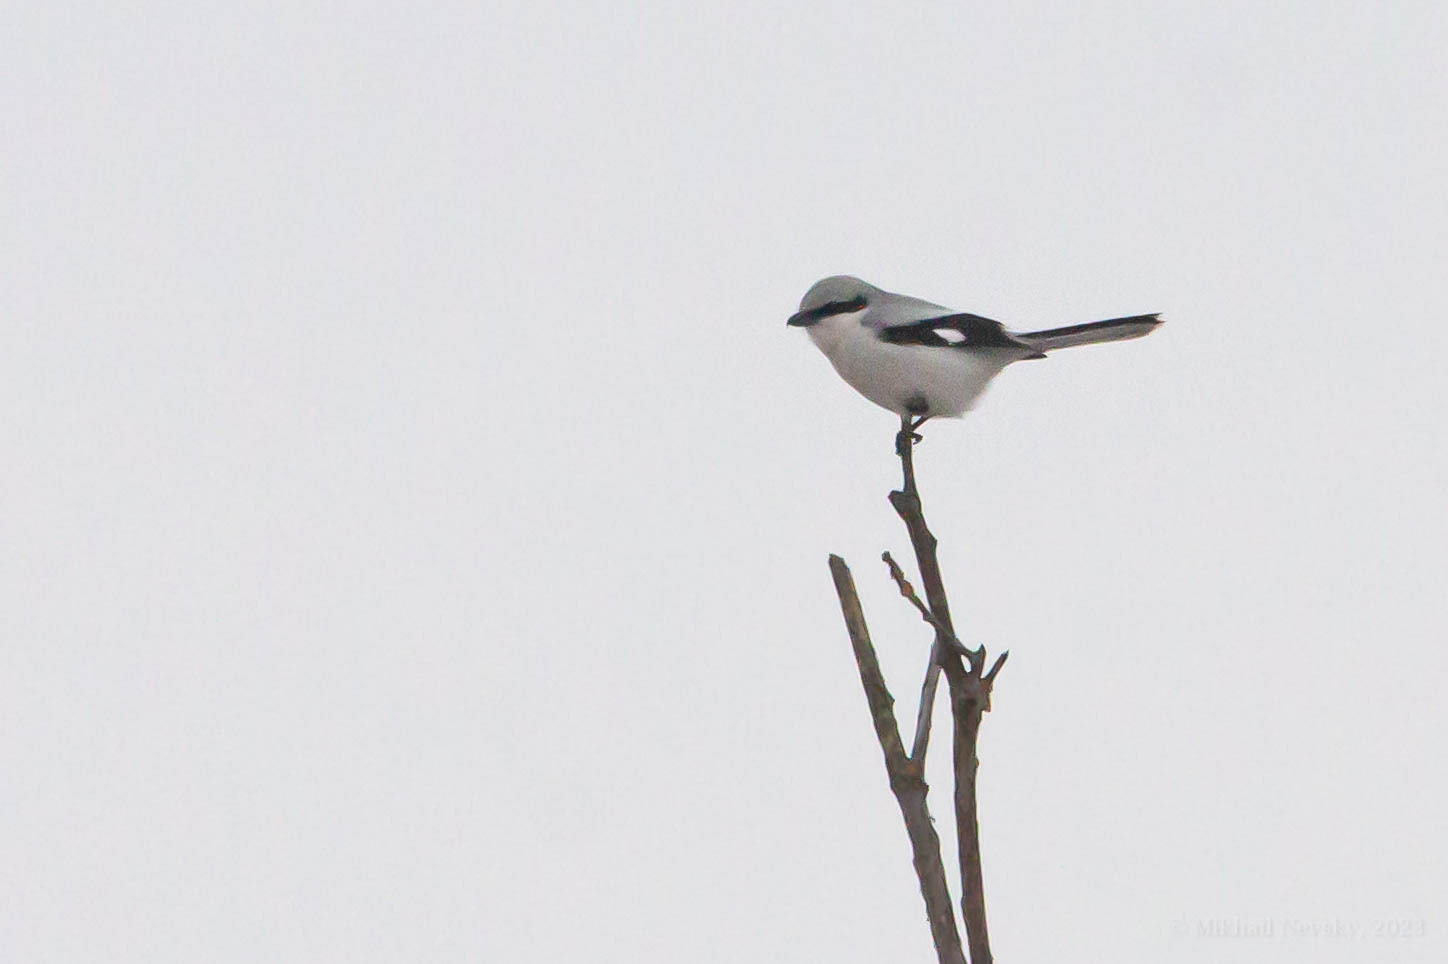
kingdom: Animalia
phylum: Chordata
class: Aves
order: Passeriformes
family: Laniidae
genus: Lanius
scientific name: Lanius excubitor
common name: Great grey shrike
